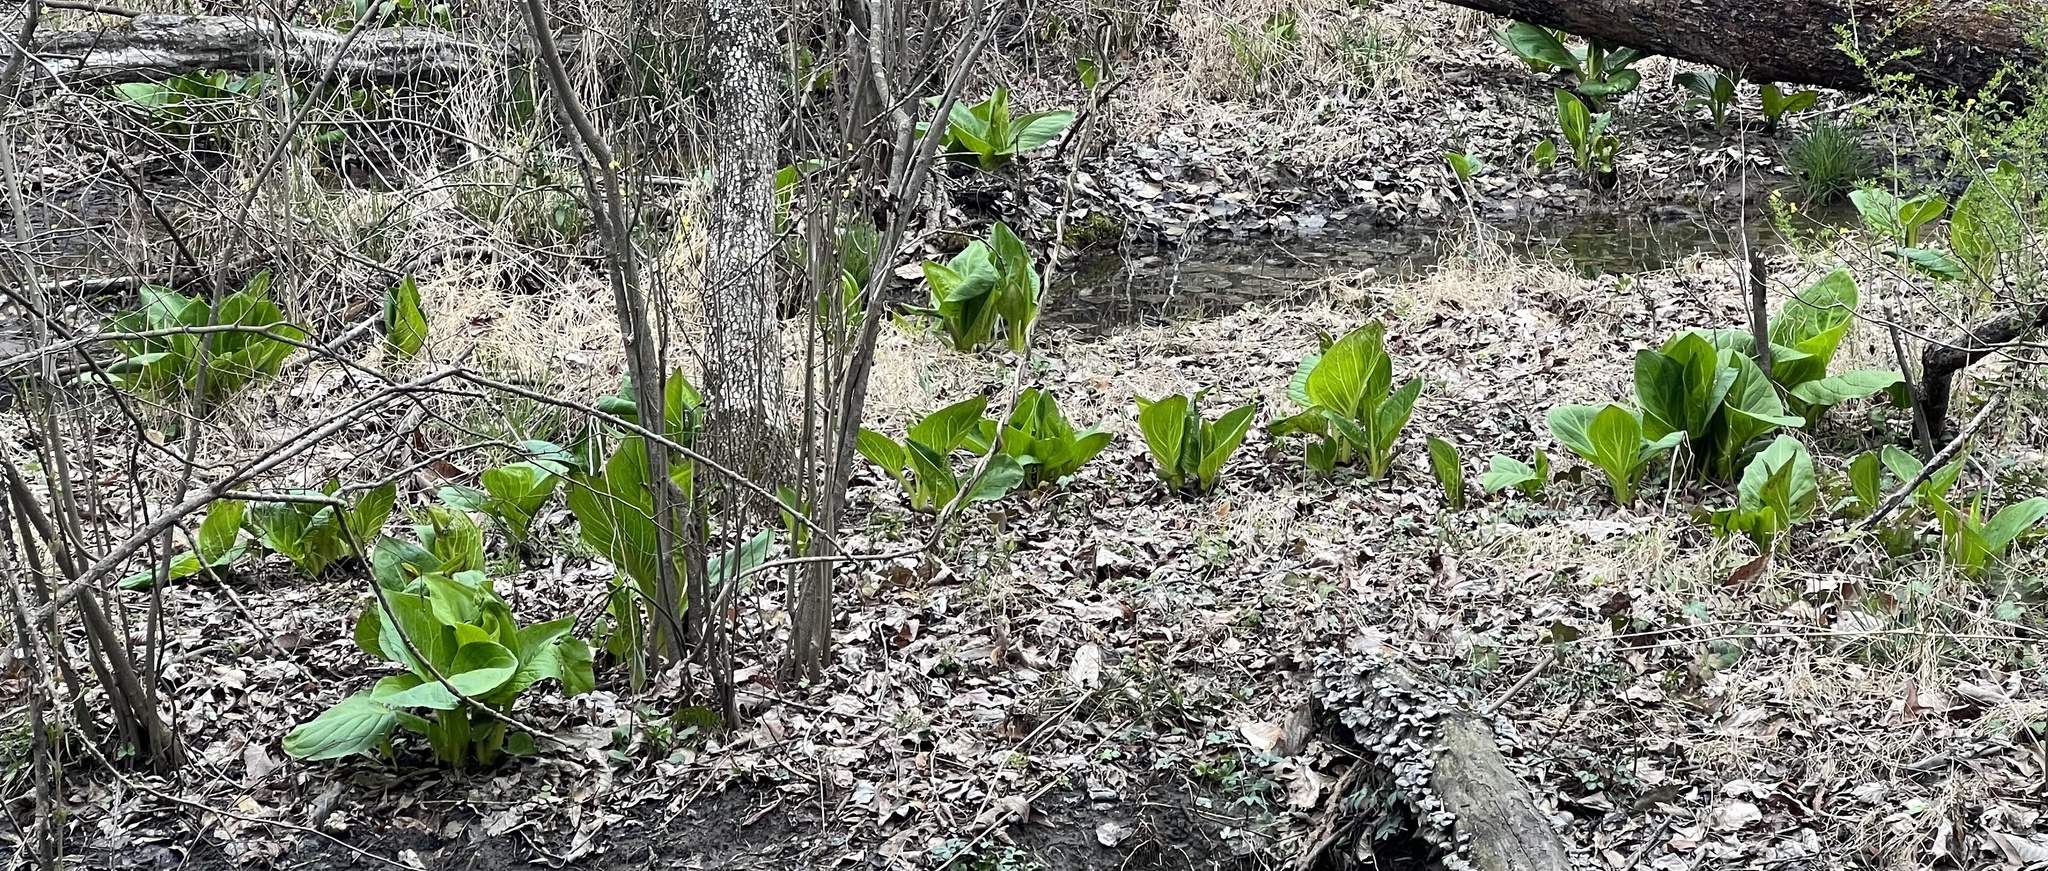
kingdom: Plantae
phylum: Tracheophyta
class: Liliopsida
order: Alismatales
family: Araceae
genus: Symplocarpus
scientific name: Symplocarpus foetidus
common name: Eastern skunk cabbage
